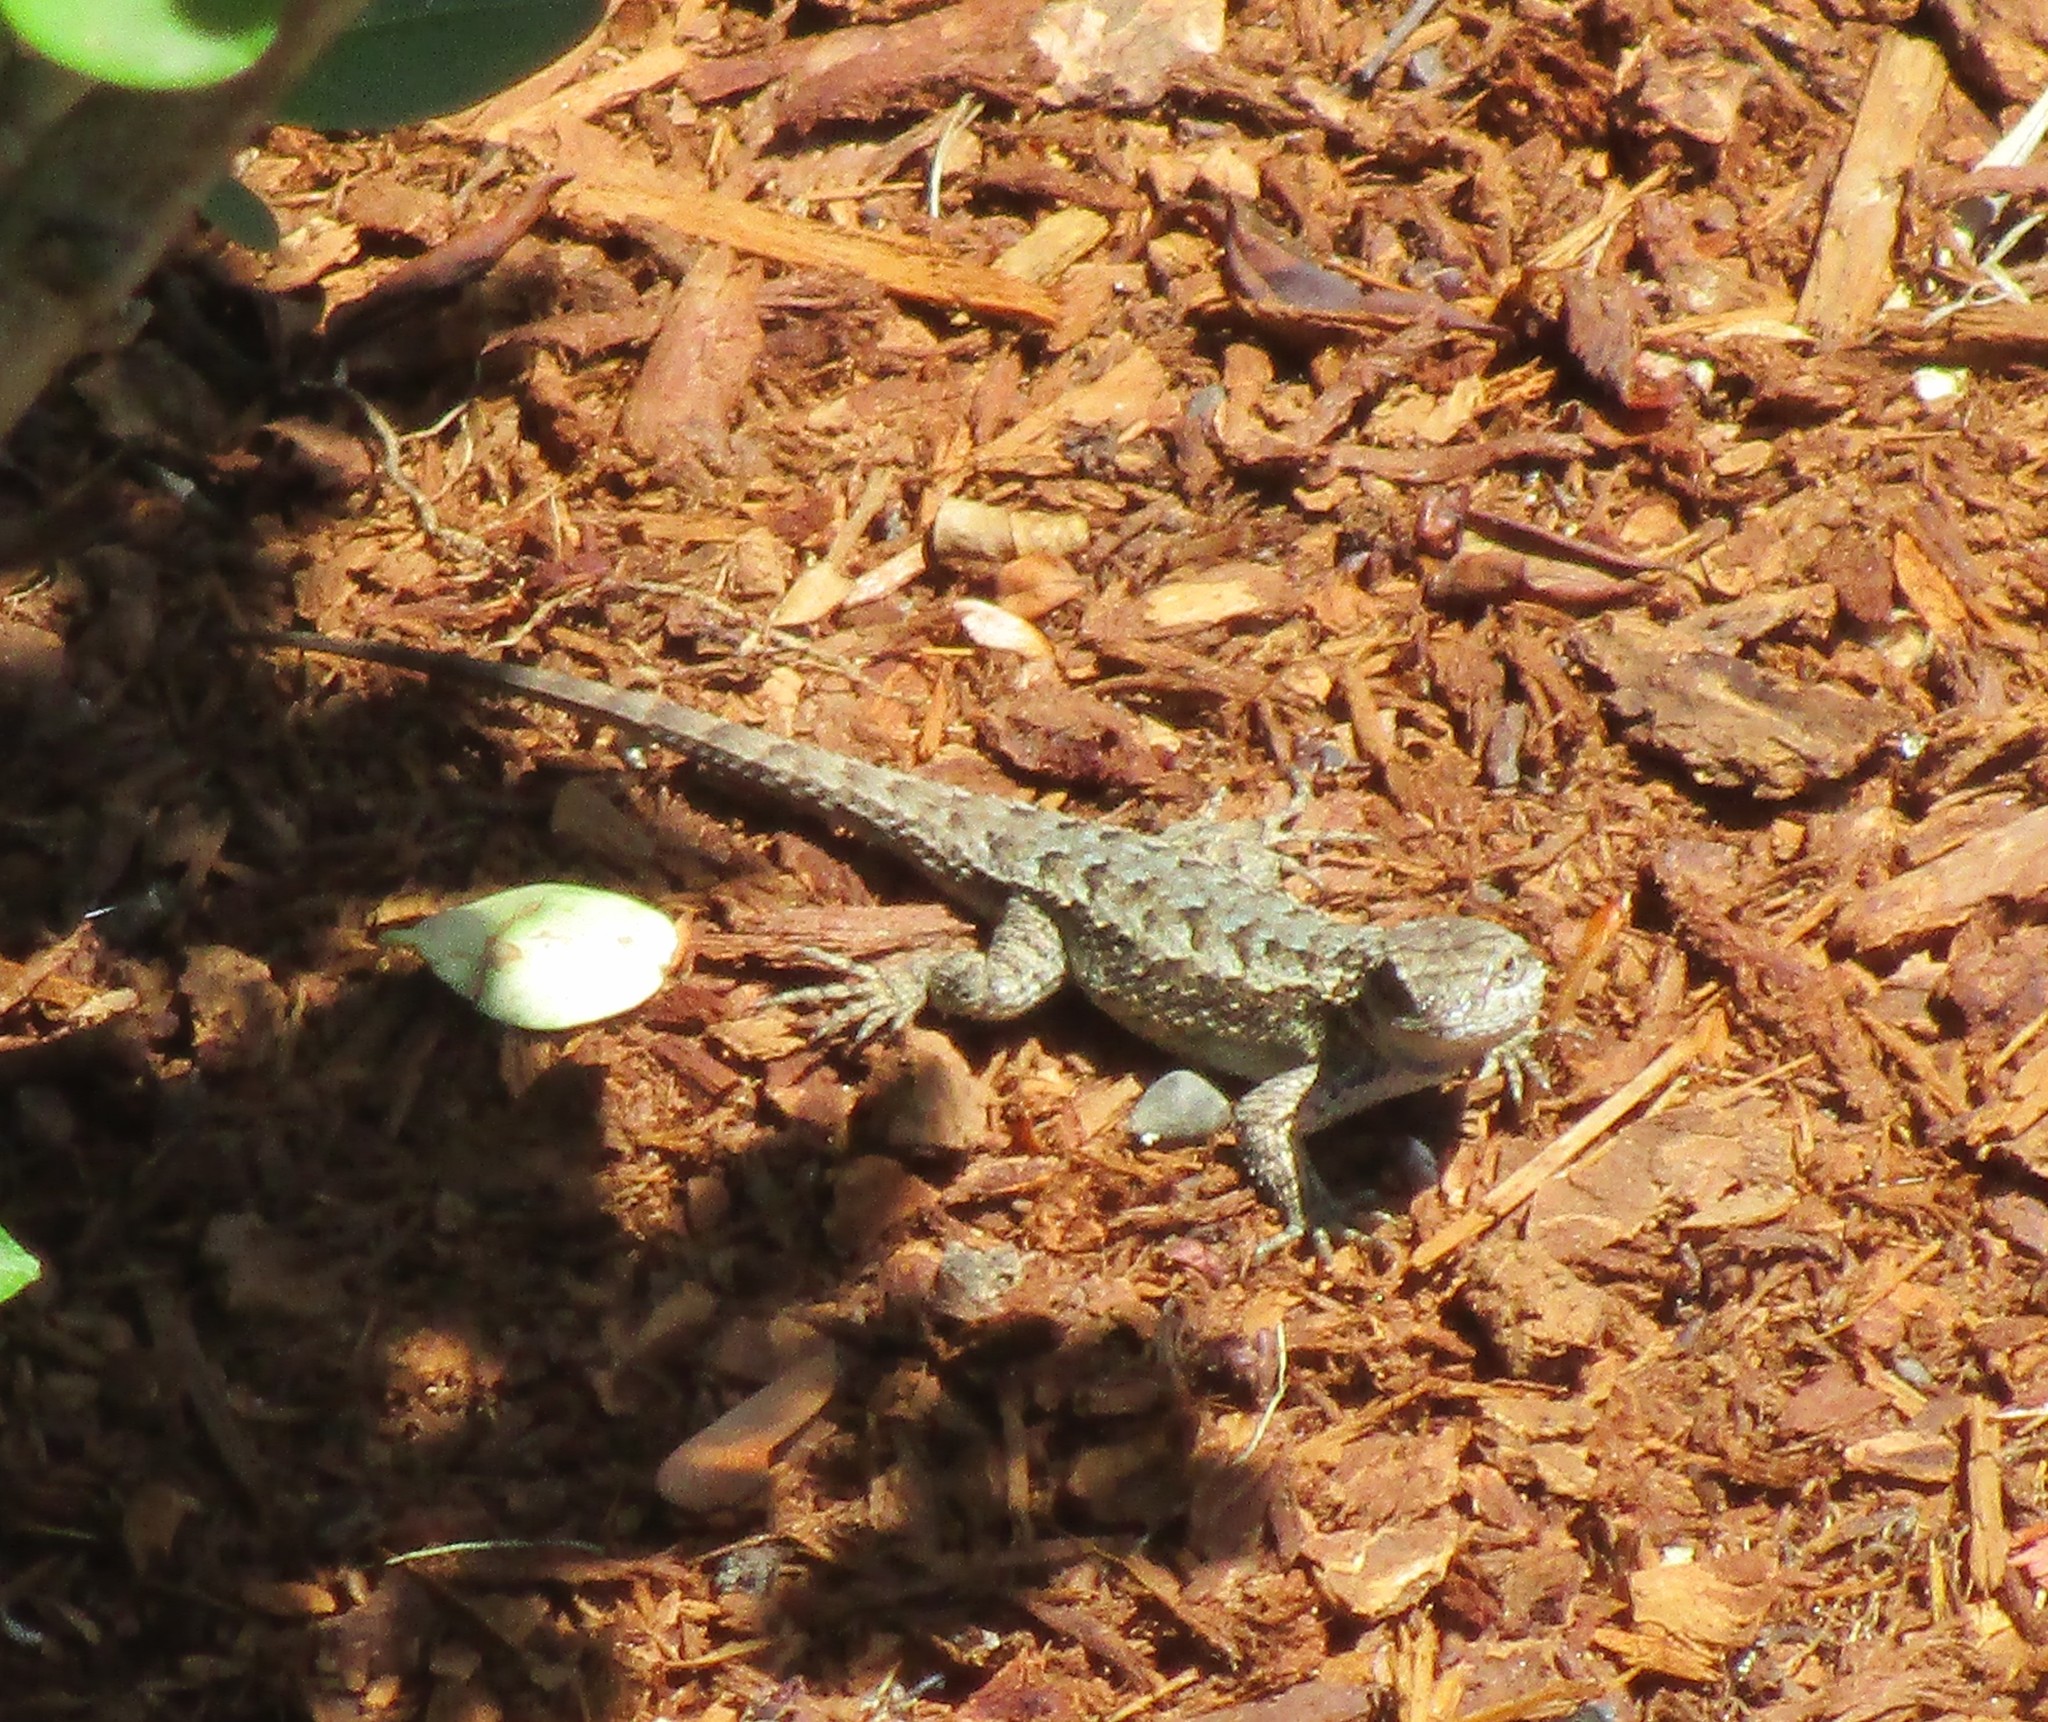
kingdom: Animalia
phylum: Chordata
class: Squamata
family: Phrynosomatidae
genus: Sceloporus
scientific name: Sceloporus occidentalis
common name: Western fence lizard
